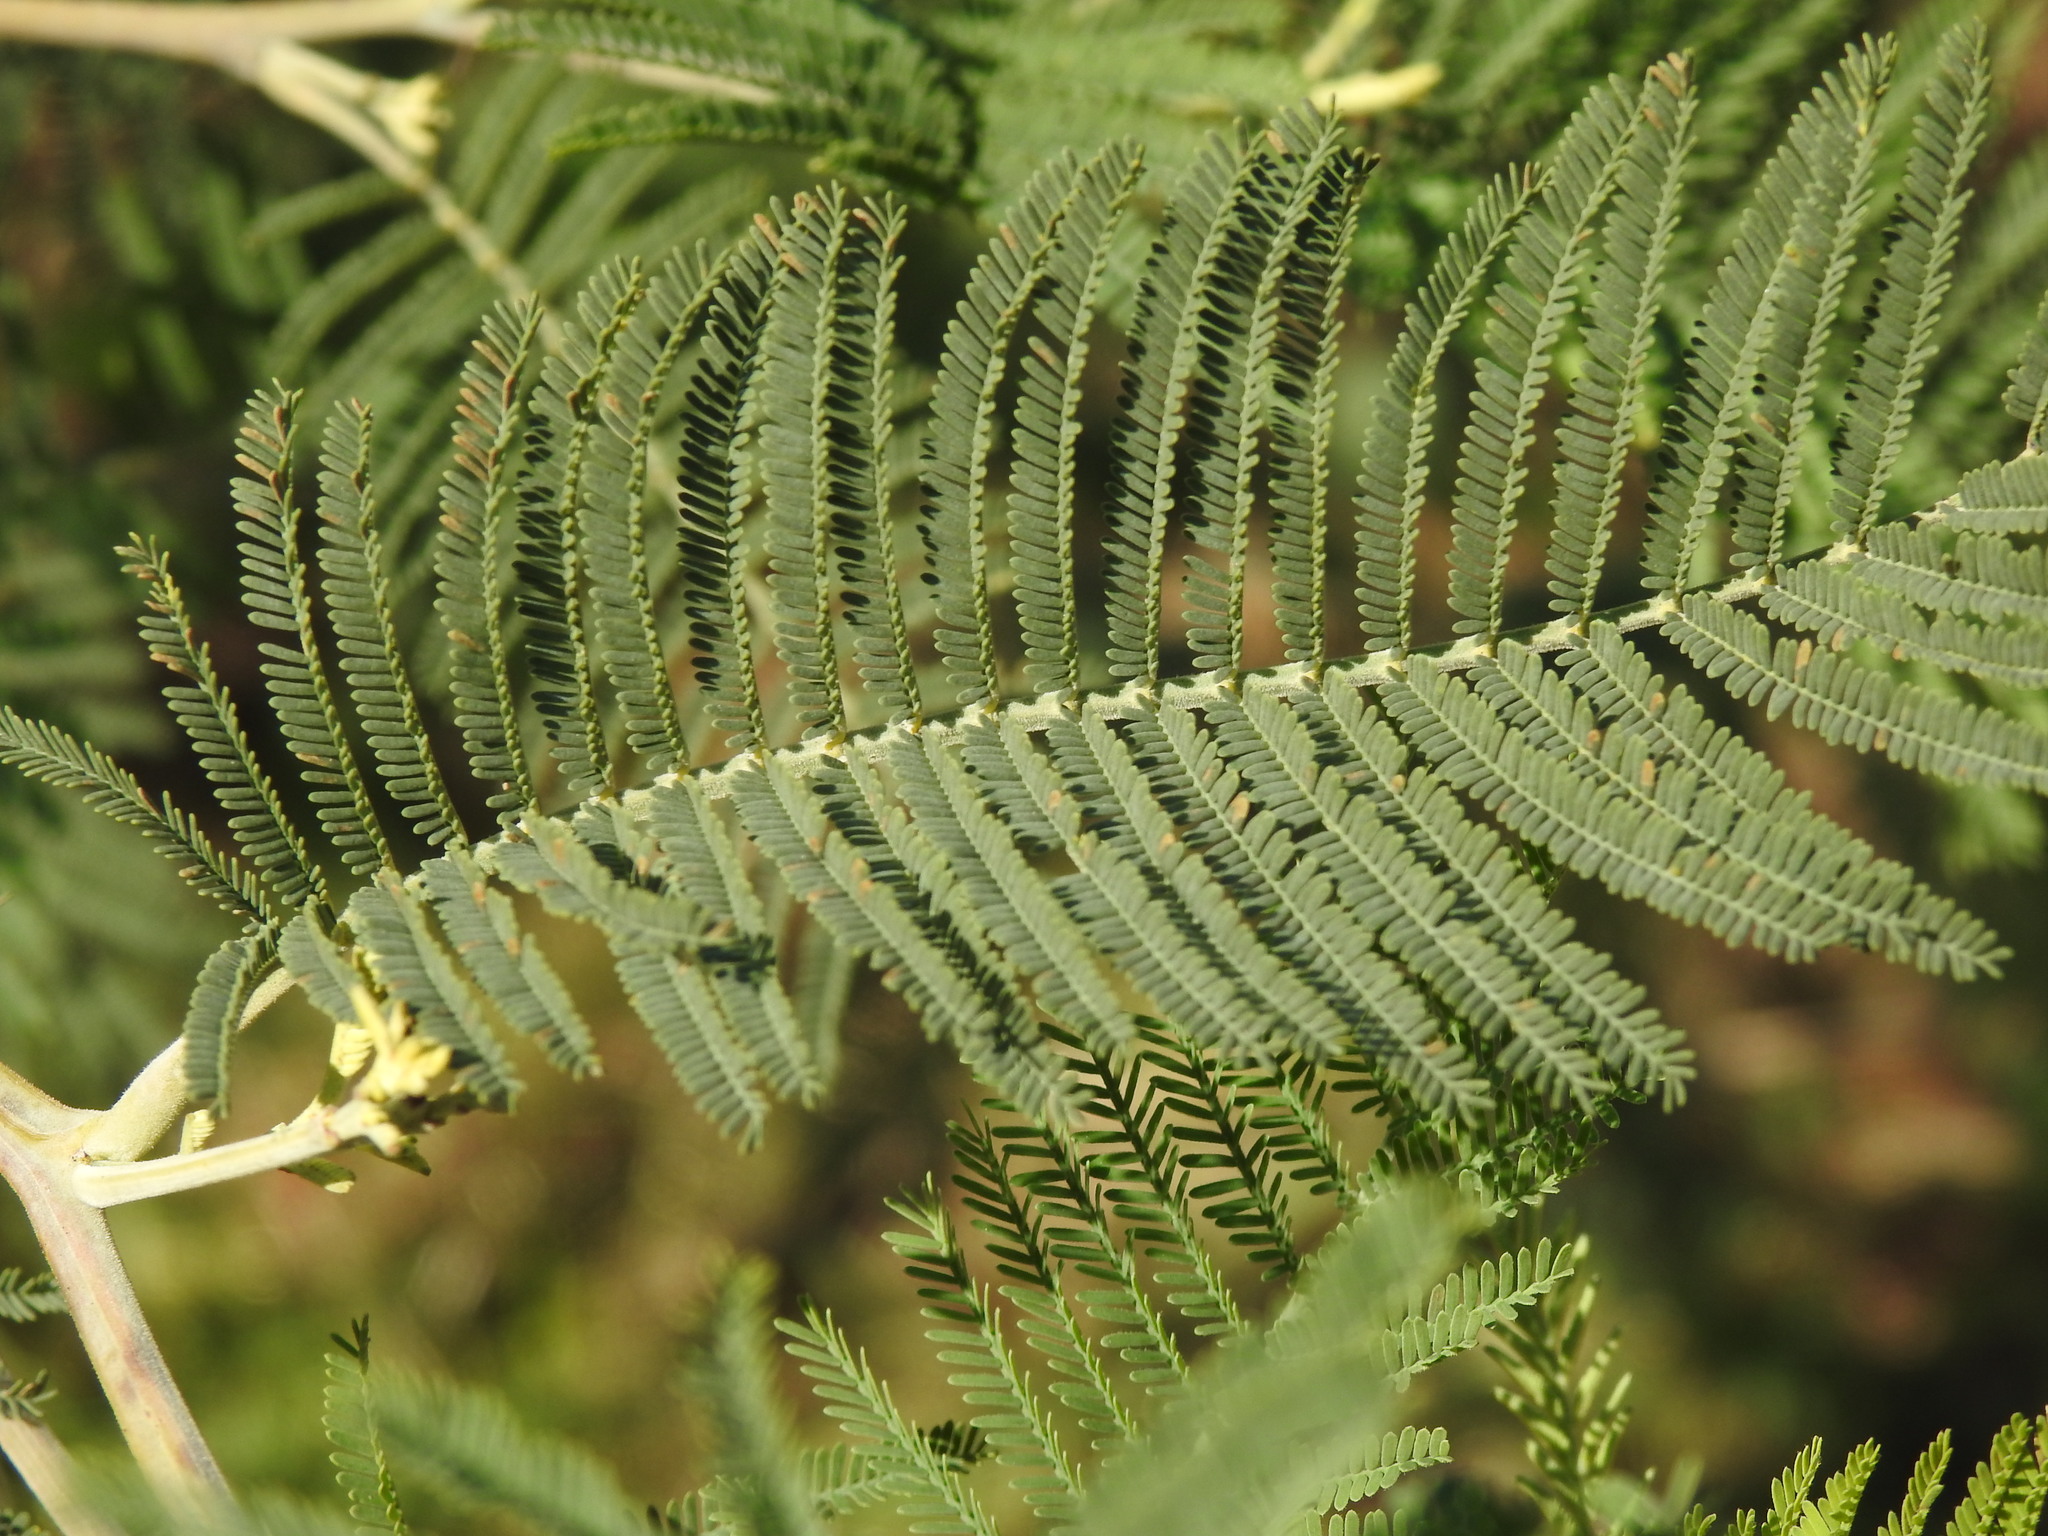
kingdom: Plantae
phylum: Tracheophyta
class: Magnoliopsida
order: Fabales
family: Fabaceae
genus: Acacia
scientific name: Acacia dealbata
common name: Silver wattle
